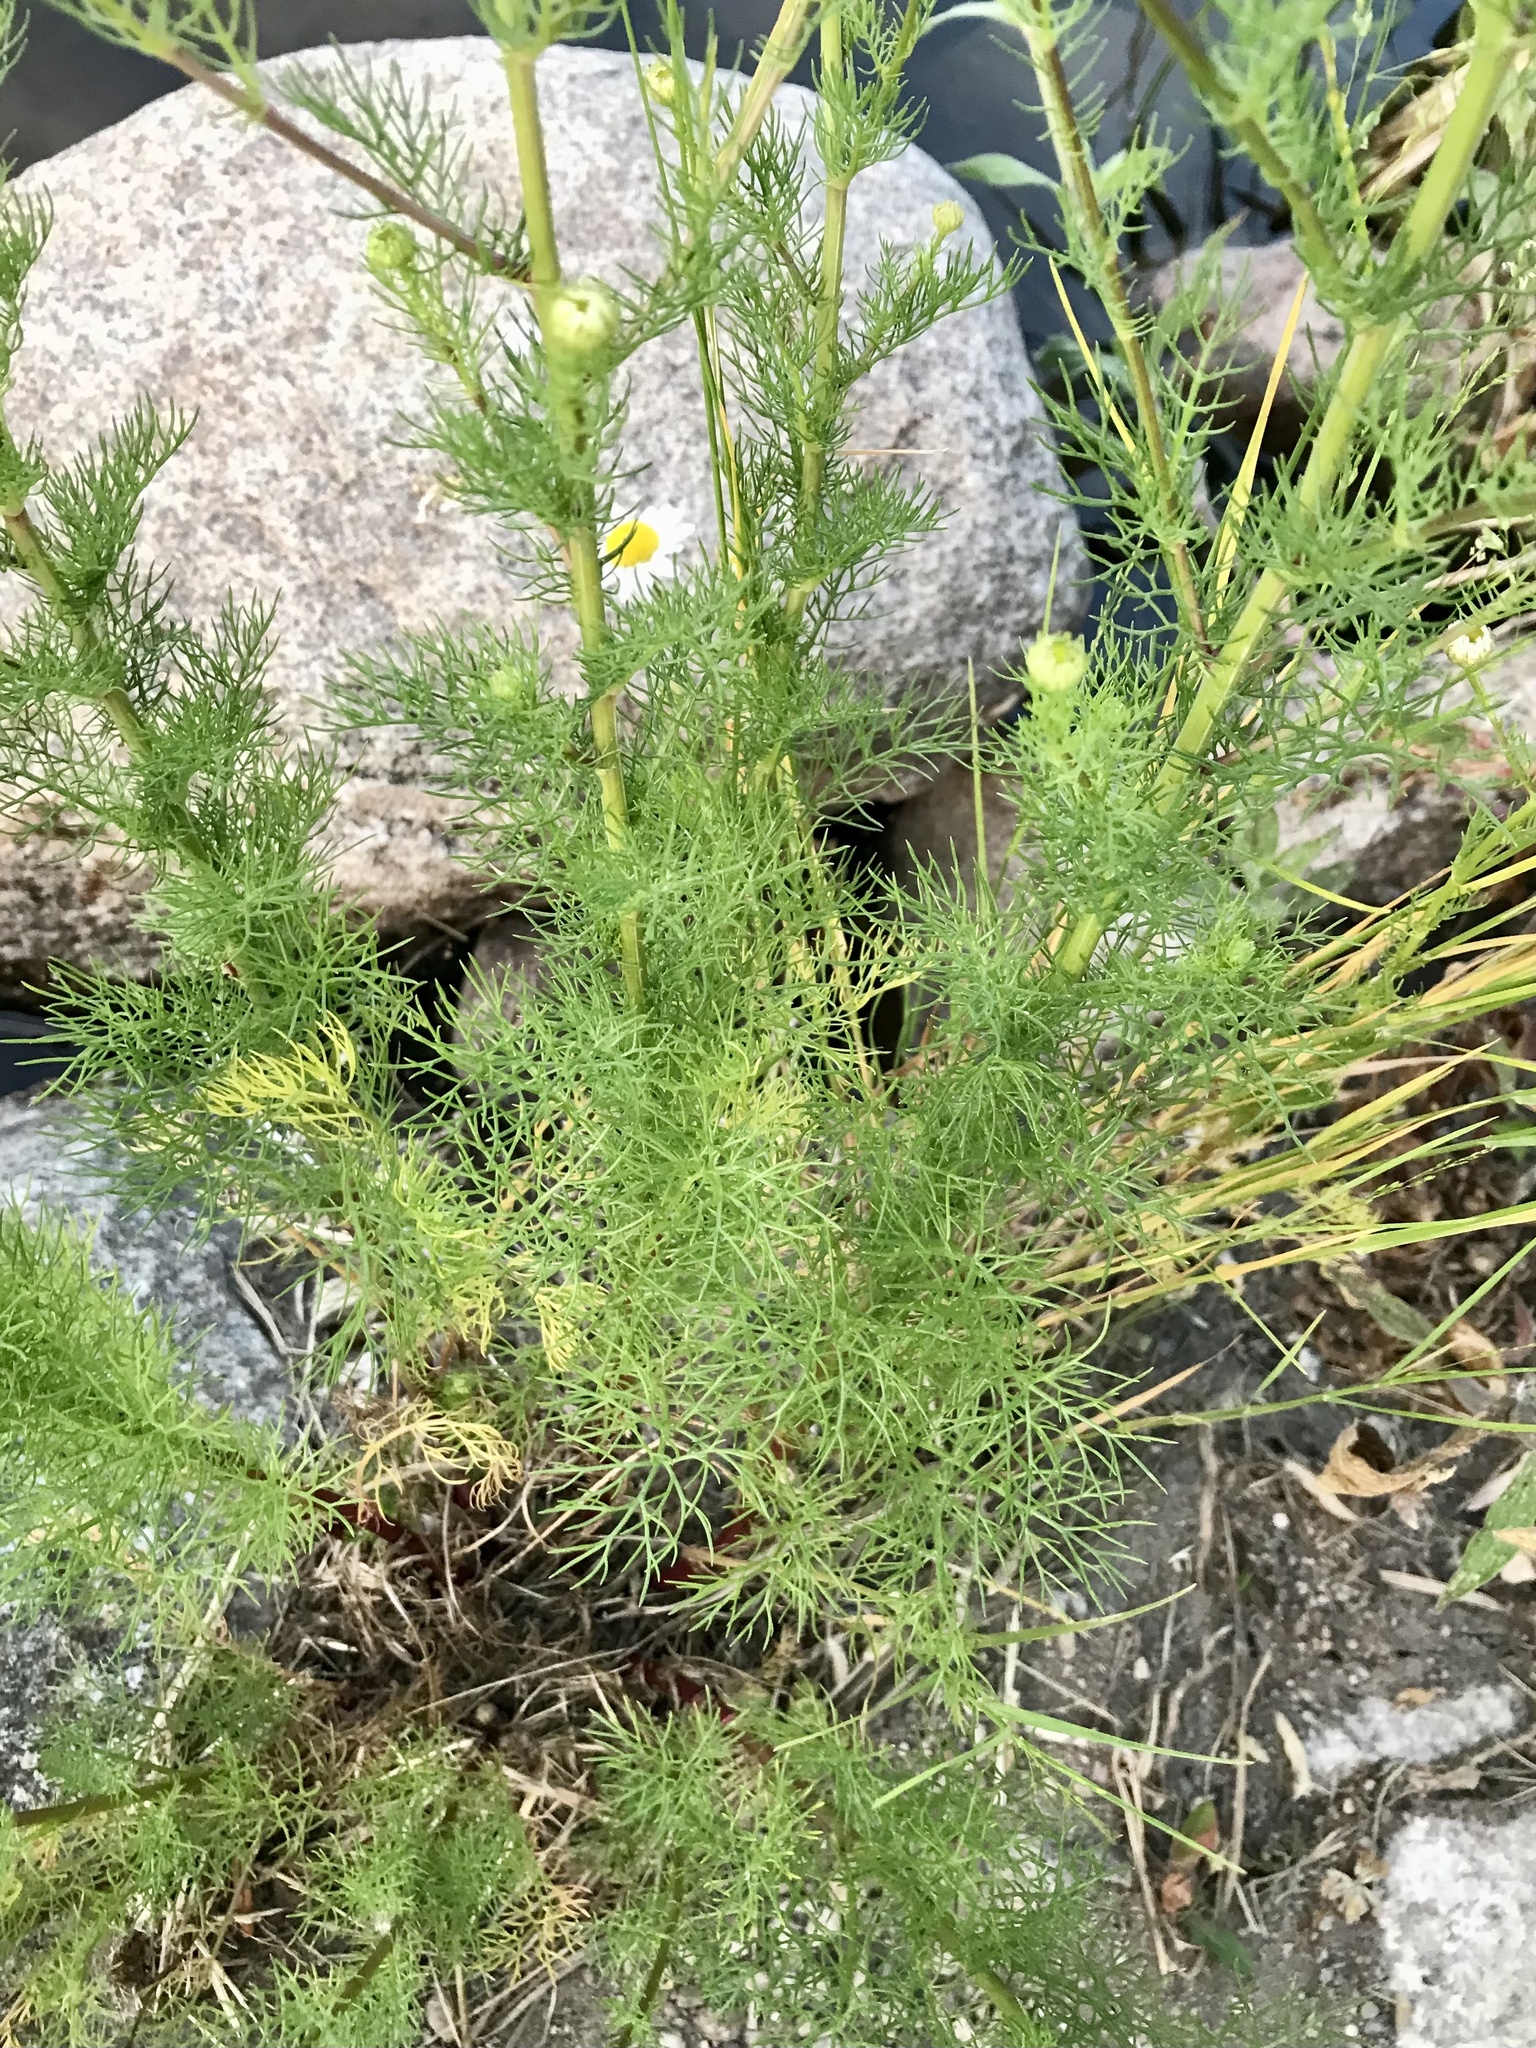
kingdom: Plantae
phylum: Tracheophyta
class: Magnoliopsida
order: Asterales
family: Asteraceae
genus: Tripleurospermum
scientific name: Tripleurospermum inodorum
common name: Scentless mayweed
